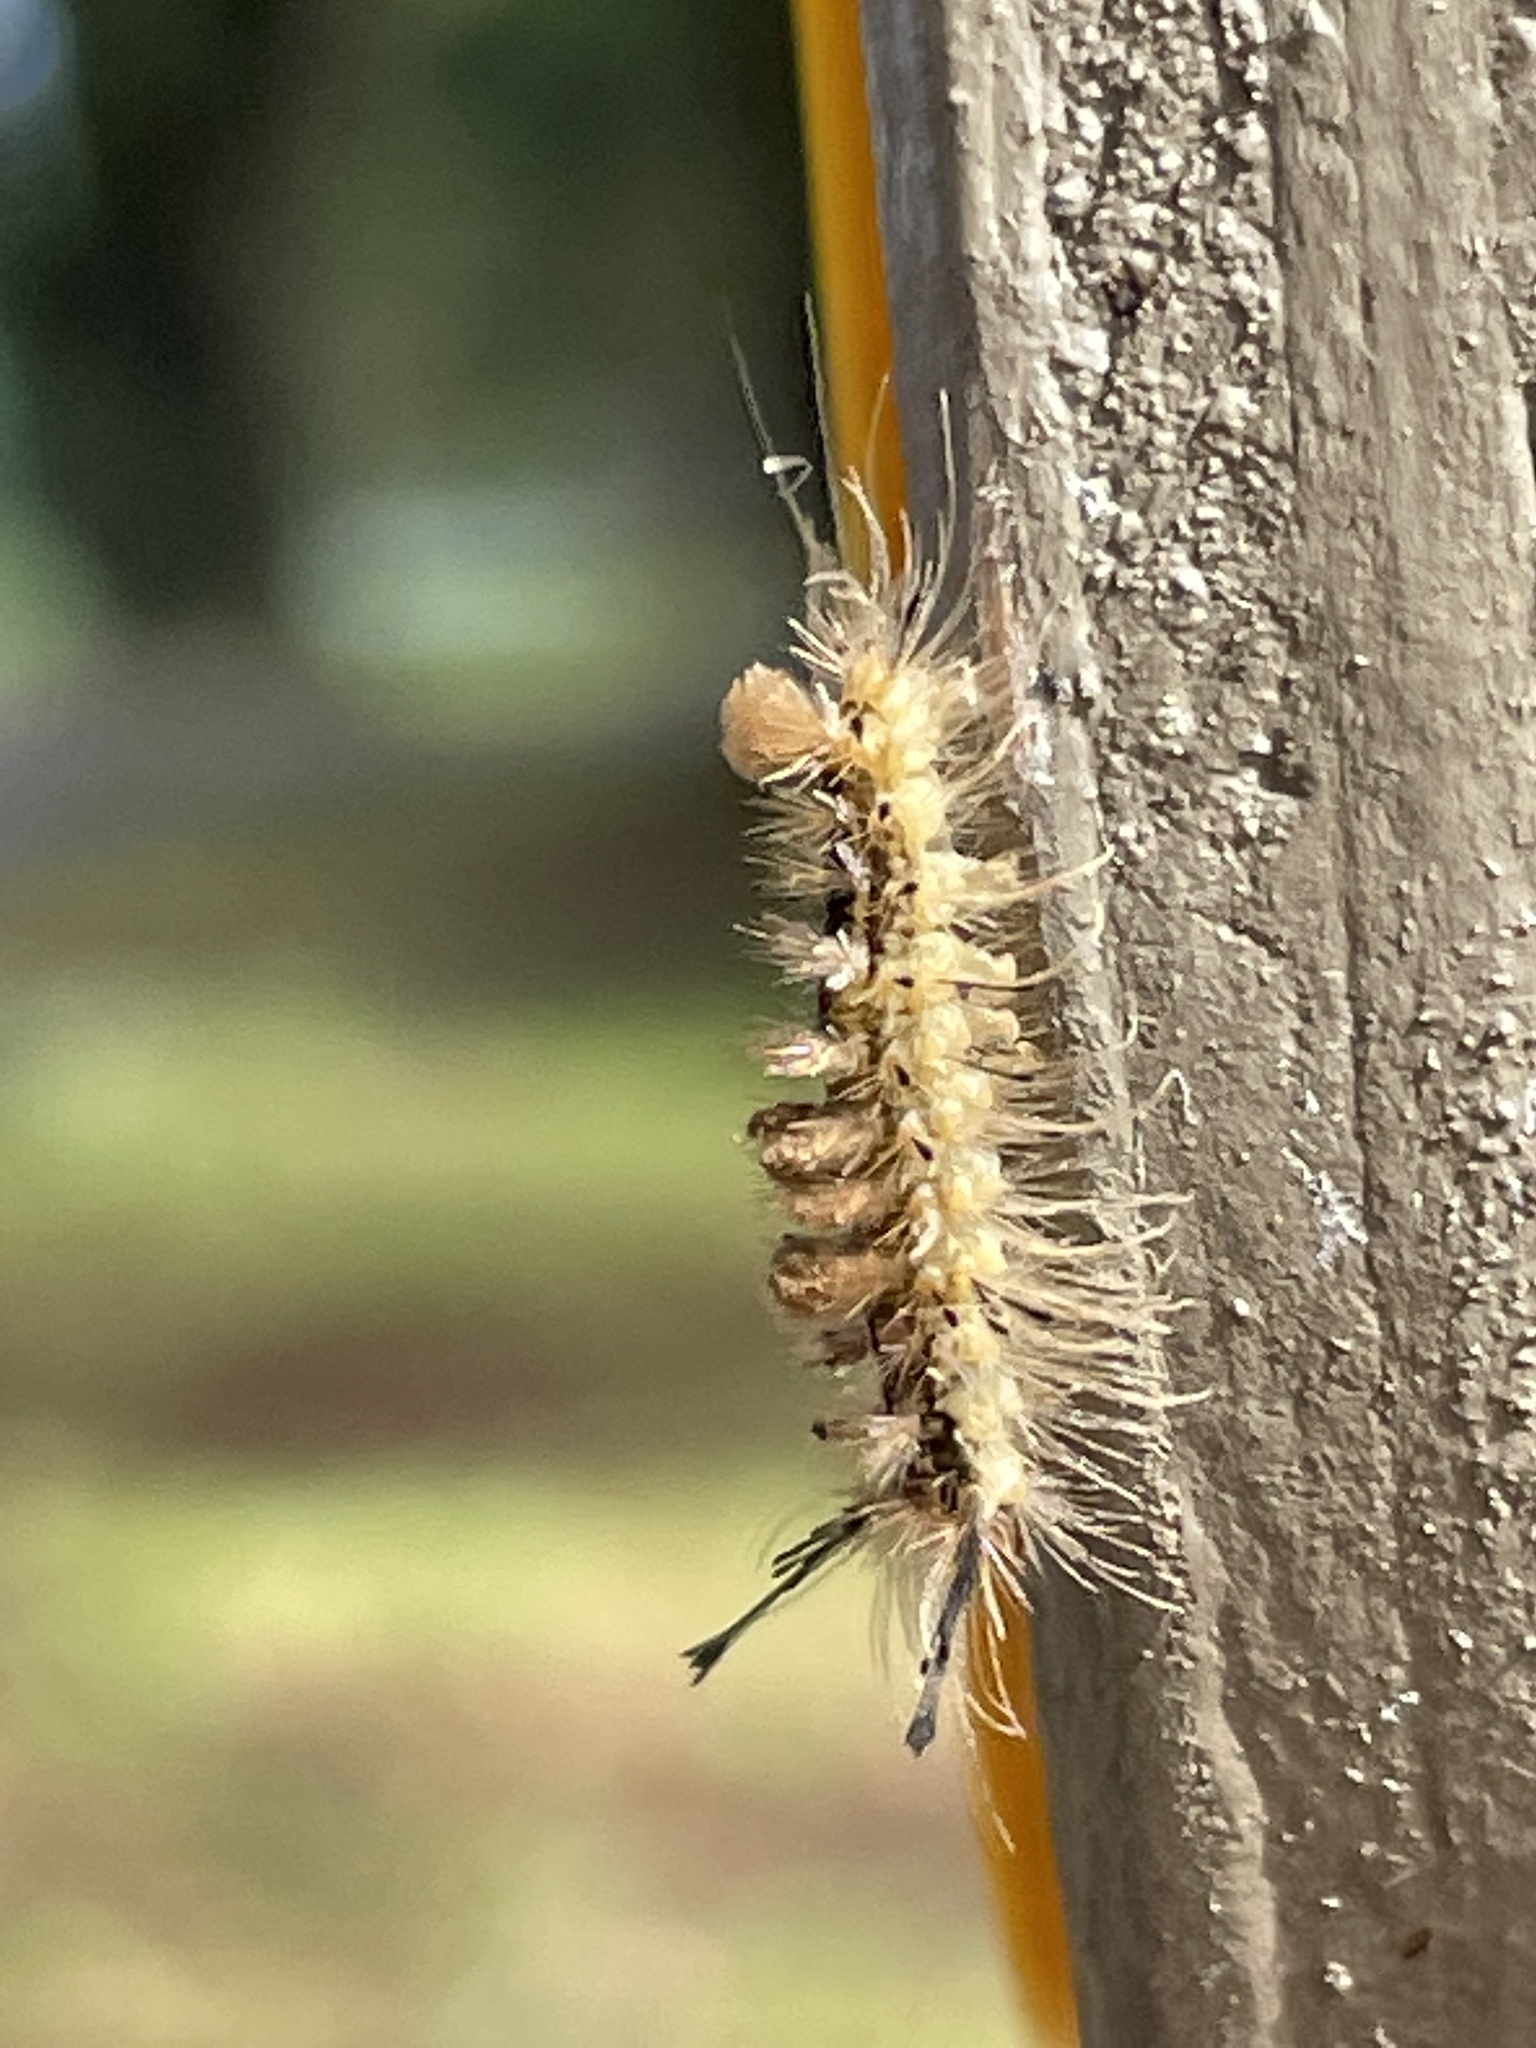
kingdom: Animalia
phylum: Arthropoda
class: Insecta
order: Lepidoptera
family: Erebidae
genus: Dasychira
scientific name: Dasychira meridionalis
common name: Southern tussock moth
